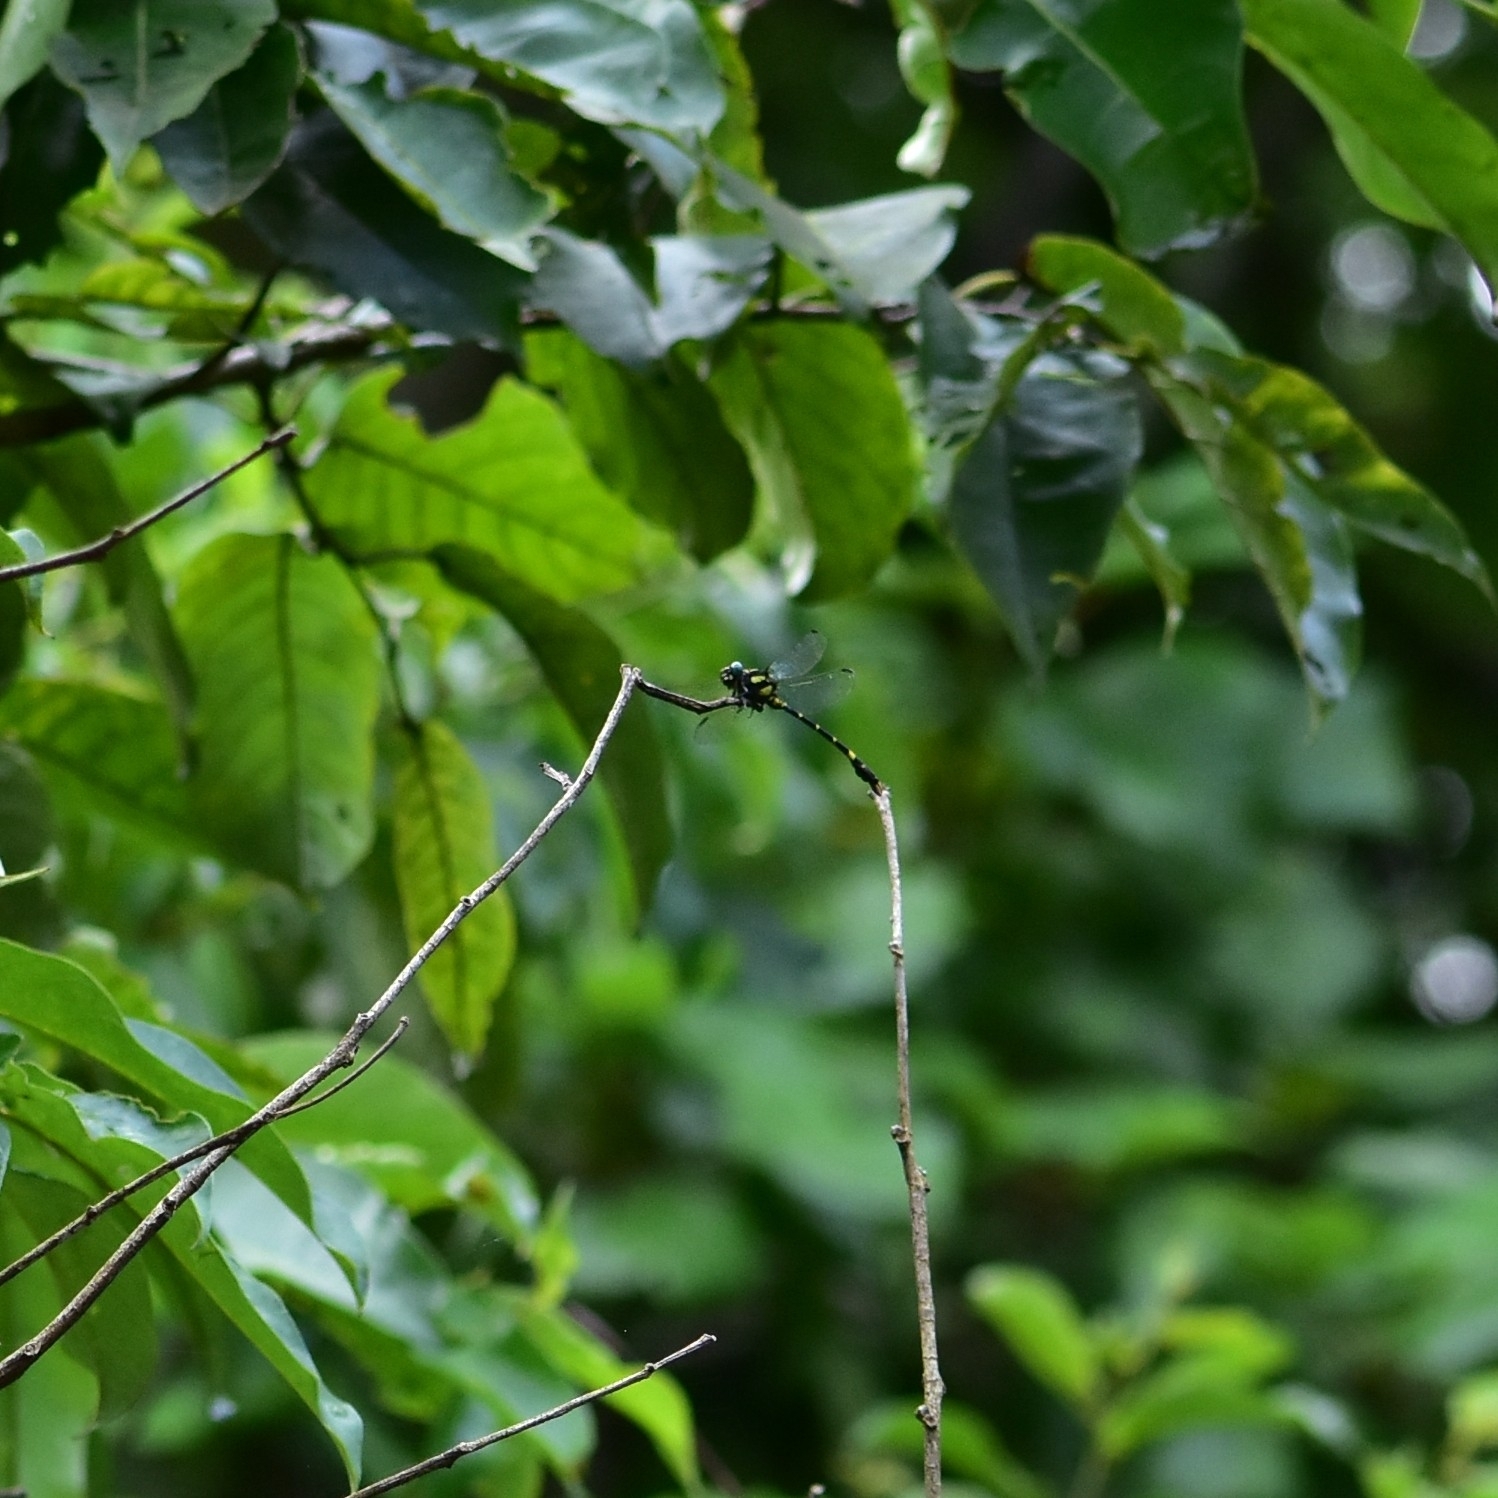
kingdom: Animalia
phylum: Arthropoda
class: Insecta
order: Odonata
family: Gomphidae
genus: Melligomphus
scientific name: Melligomphus acinaces
